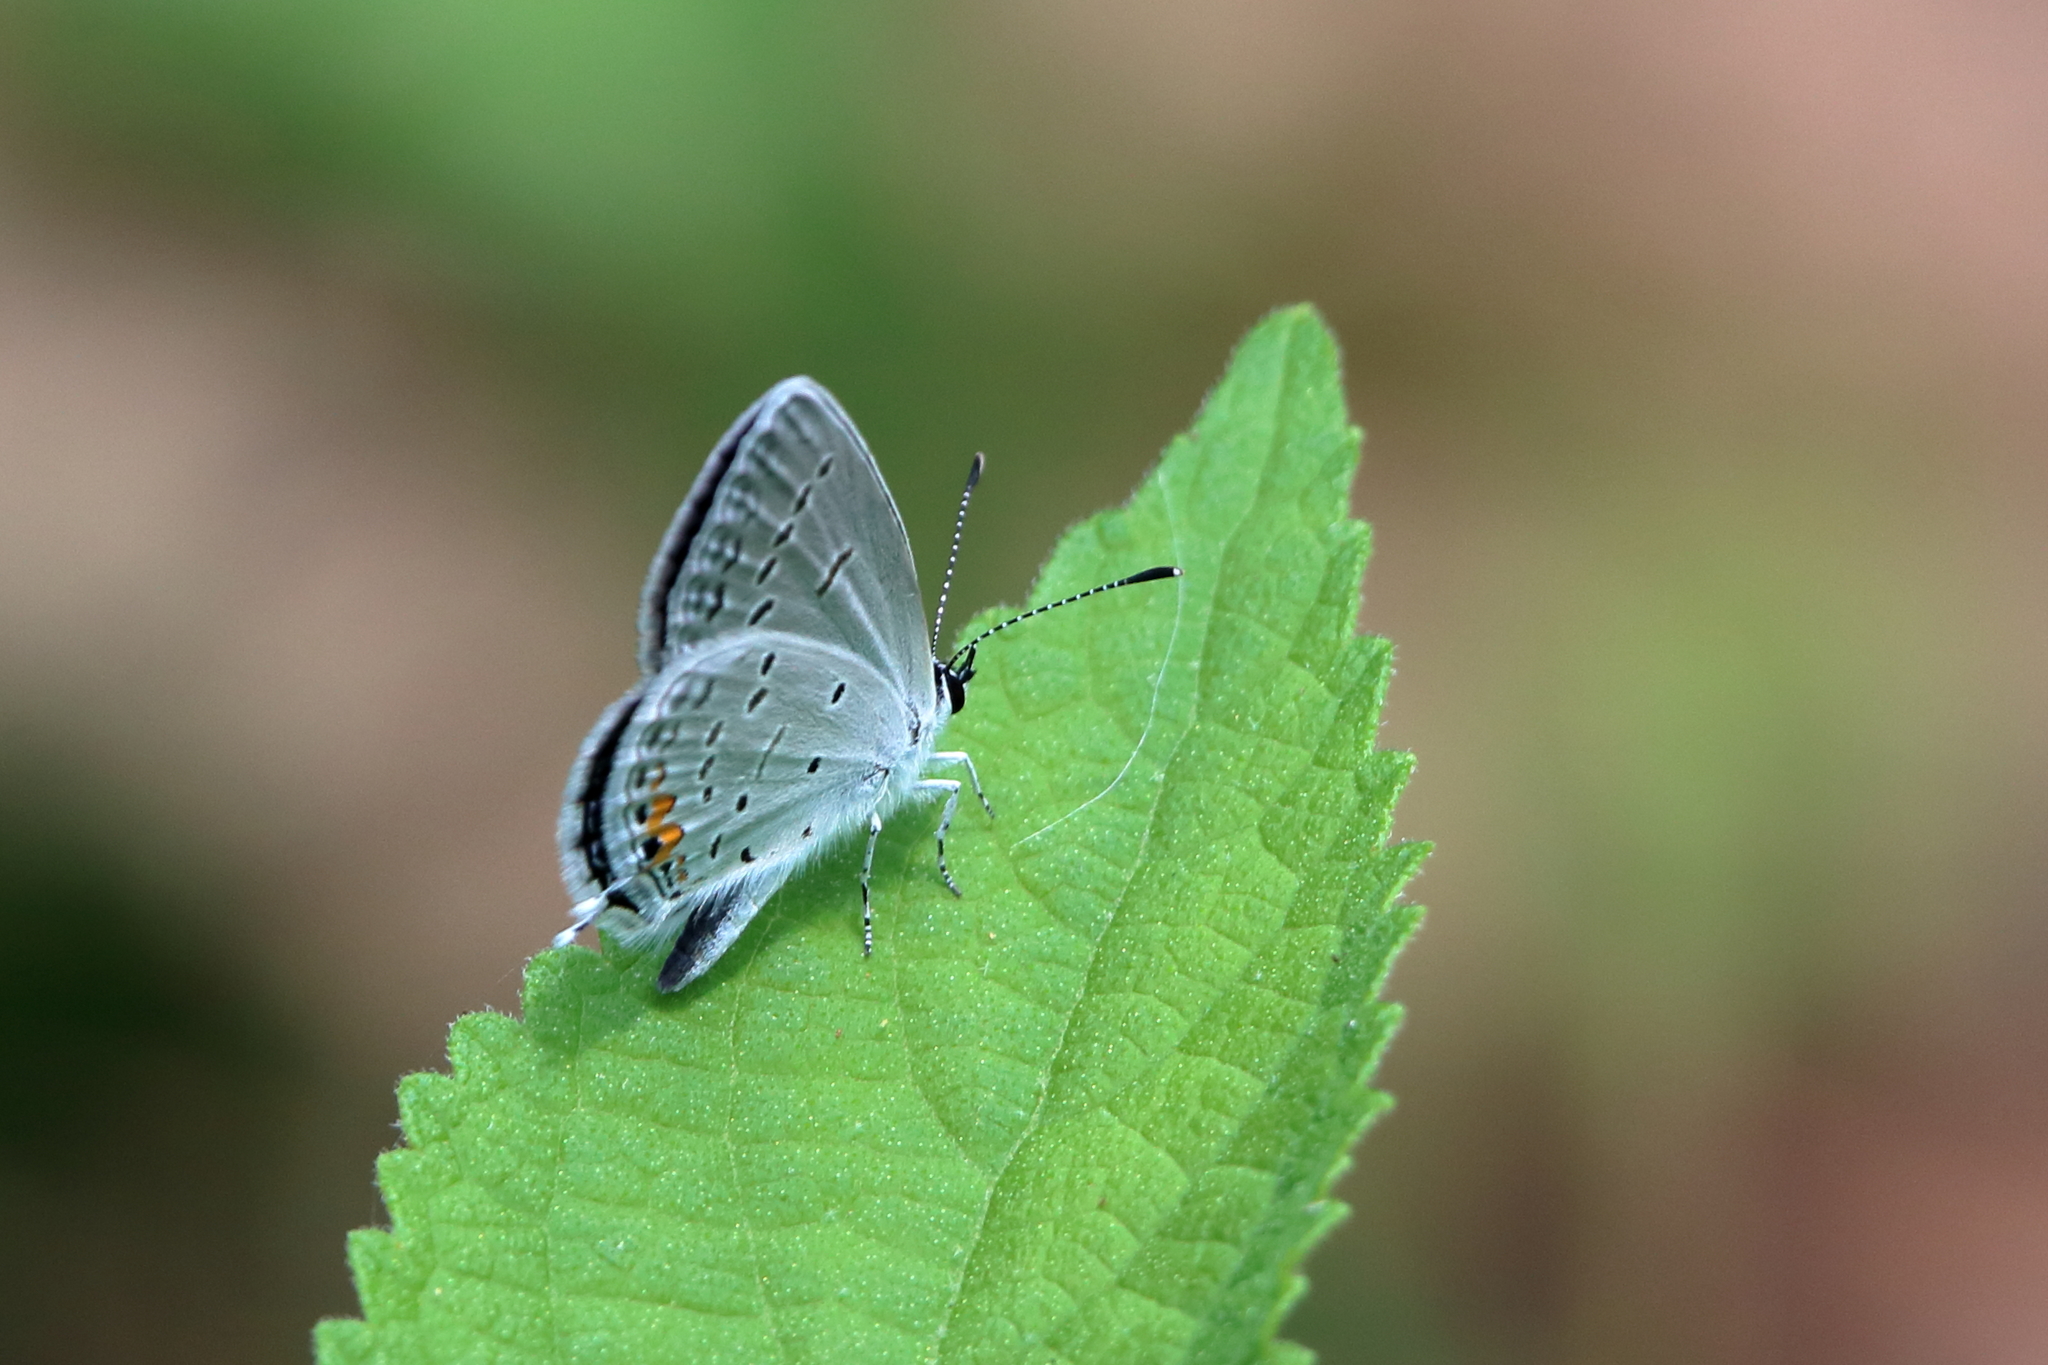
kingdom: Animalia
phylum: Arthropoda
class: Insecta
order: Lepidoptera
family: Lycaenidae
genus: Elkalyce
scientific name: Elkalyce comyntas
